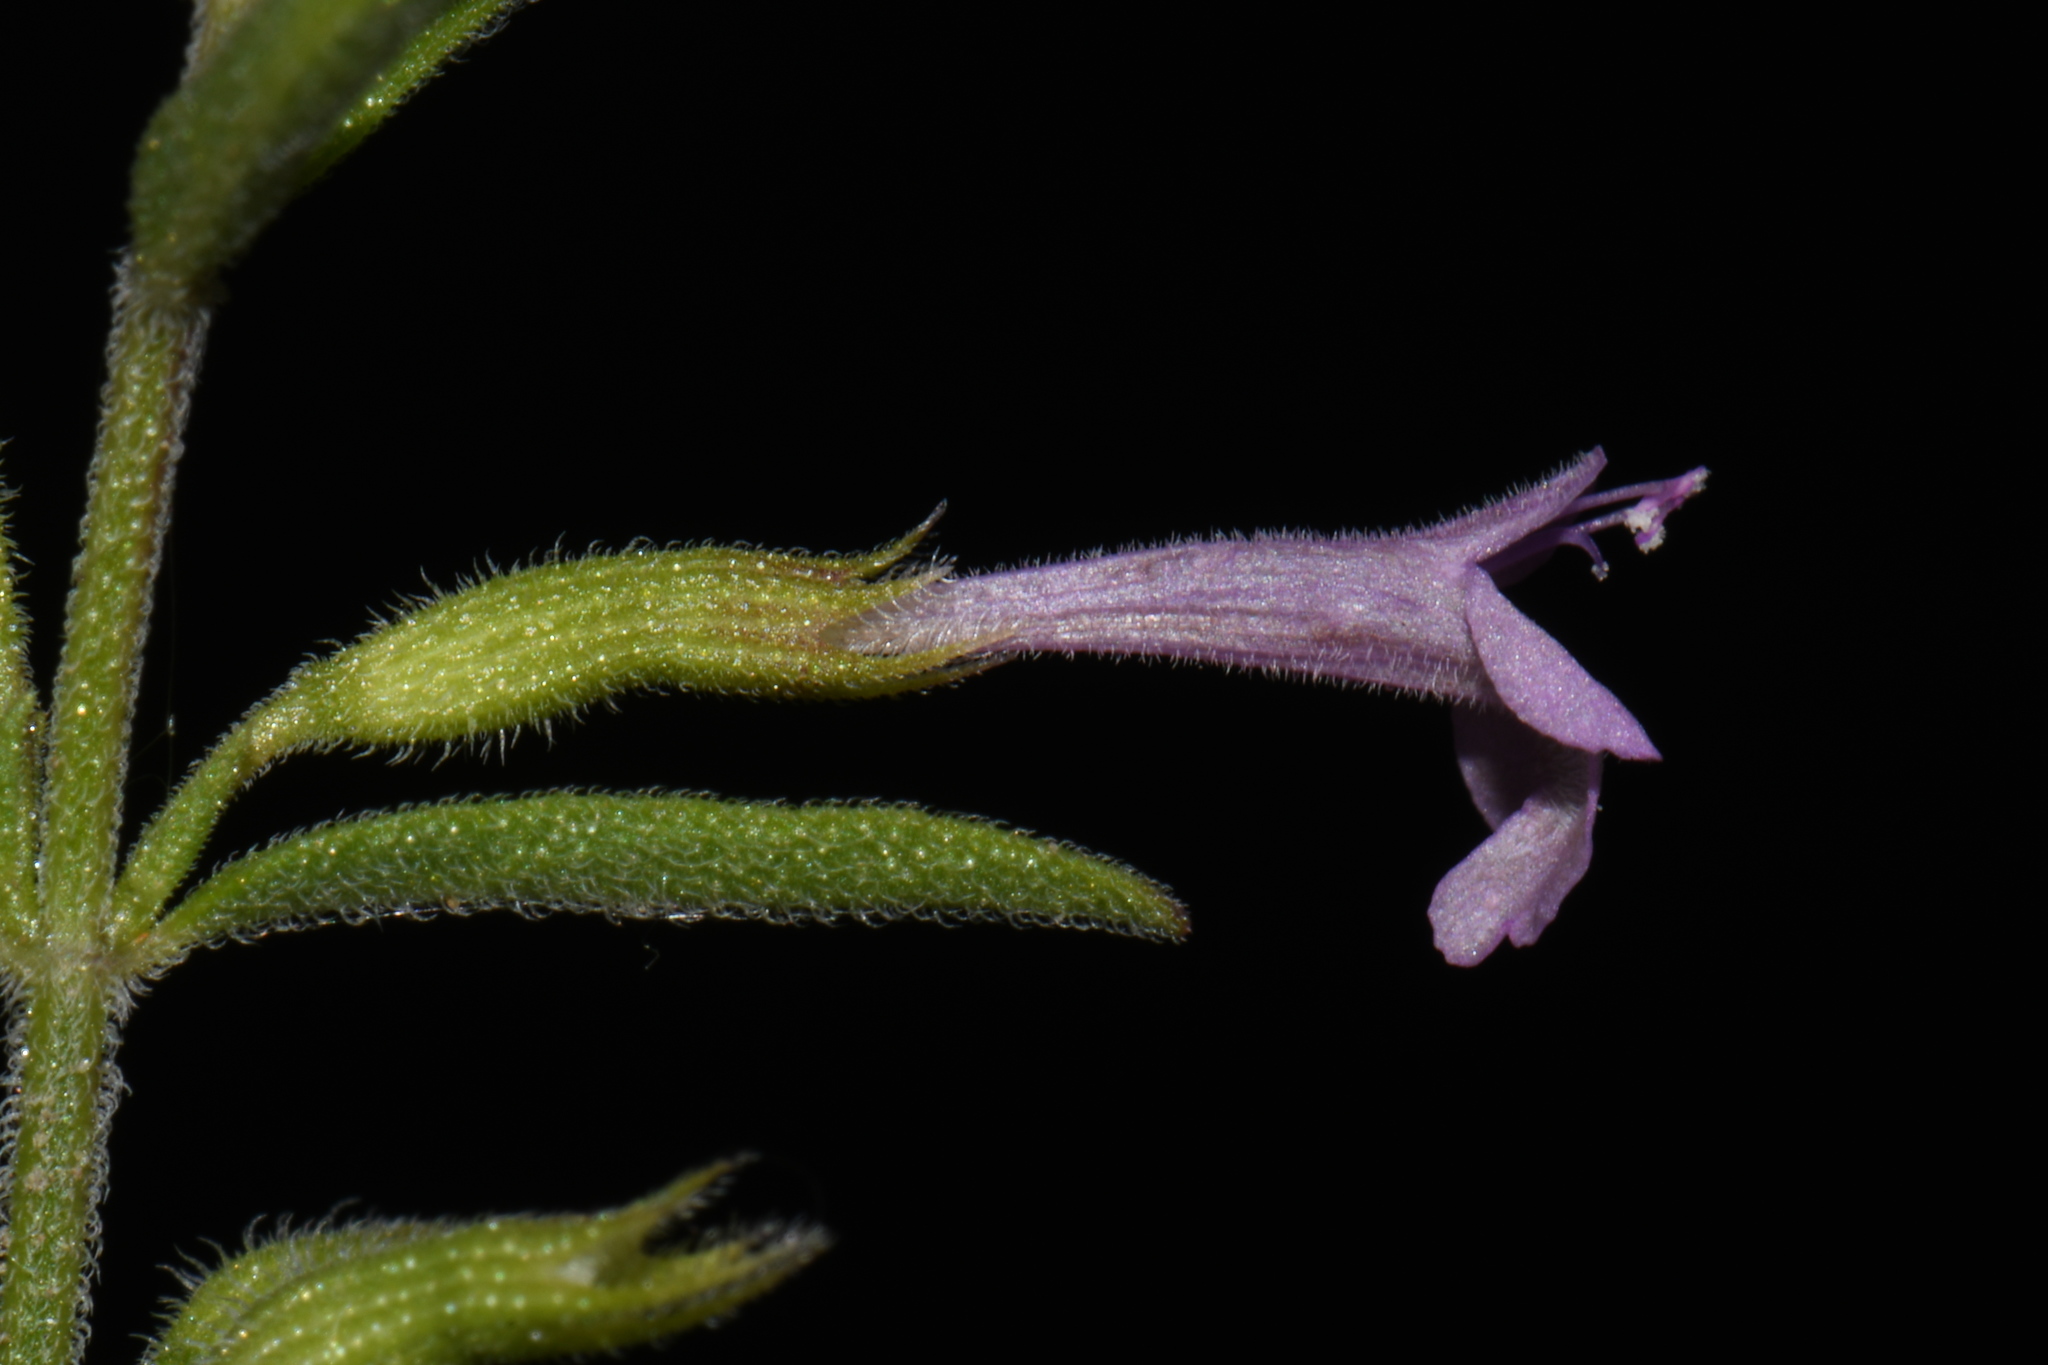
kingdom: Plantae
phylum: Tracheophyta
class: Magnoliopsida
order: Lamiales
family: Lamiaceae
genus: Hedeoma
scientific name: Hedeoma drummondii
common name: New mexico pennyroyal
